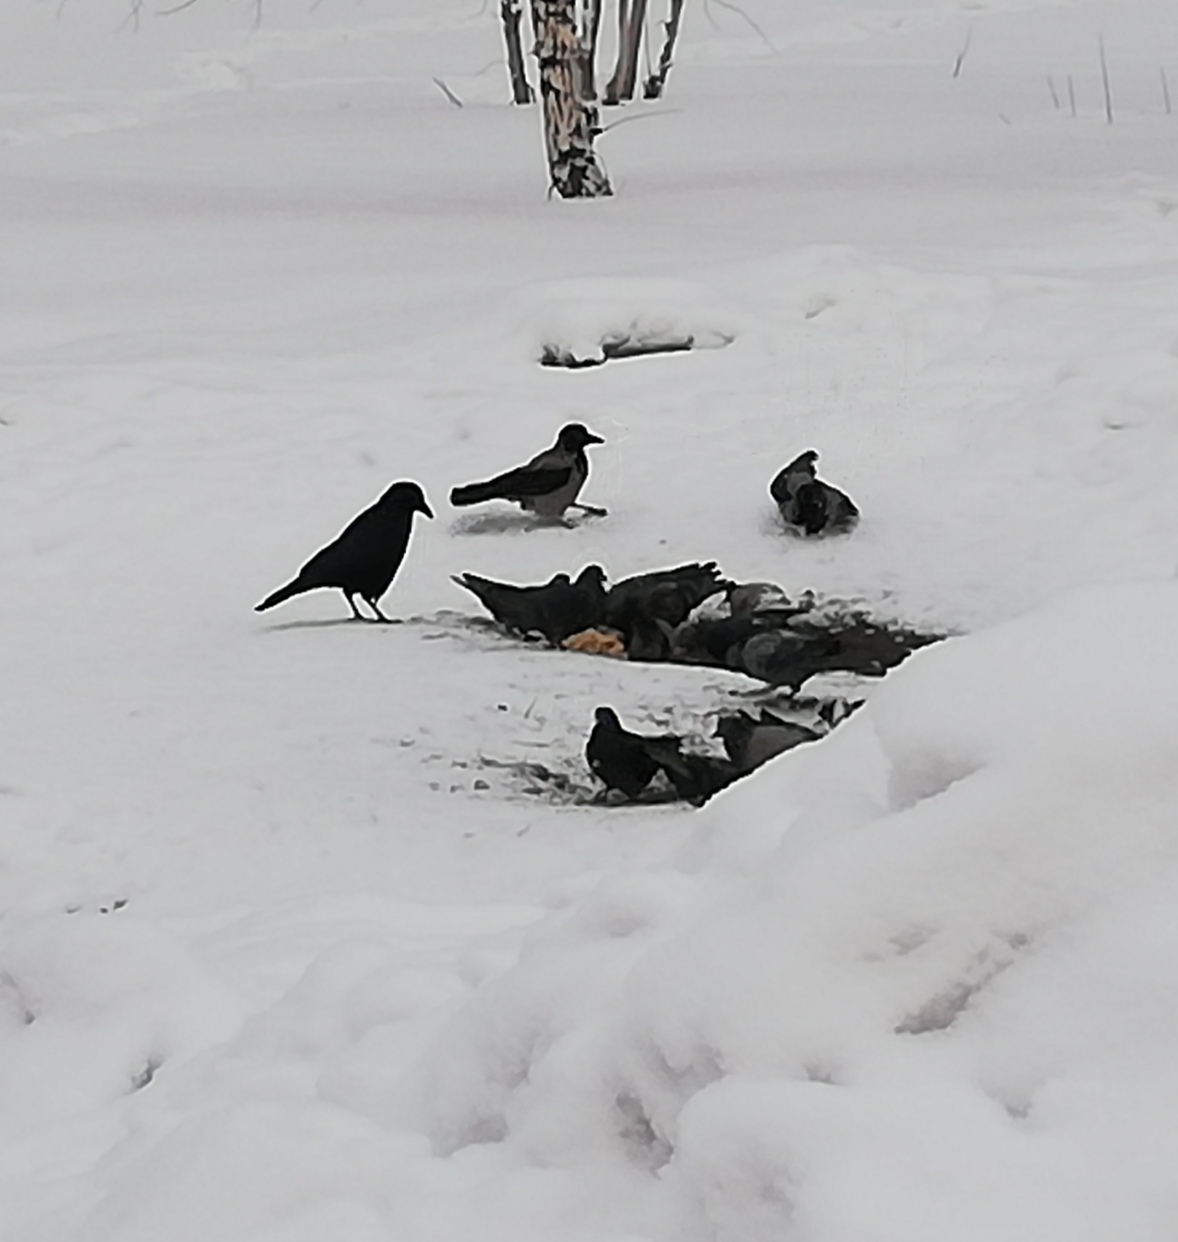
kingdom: Animalia
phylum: Chordata
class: Aves
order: Passeriformes
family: Corvidae
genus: Corvus
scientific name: Corvus corone
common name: Carrion crow
